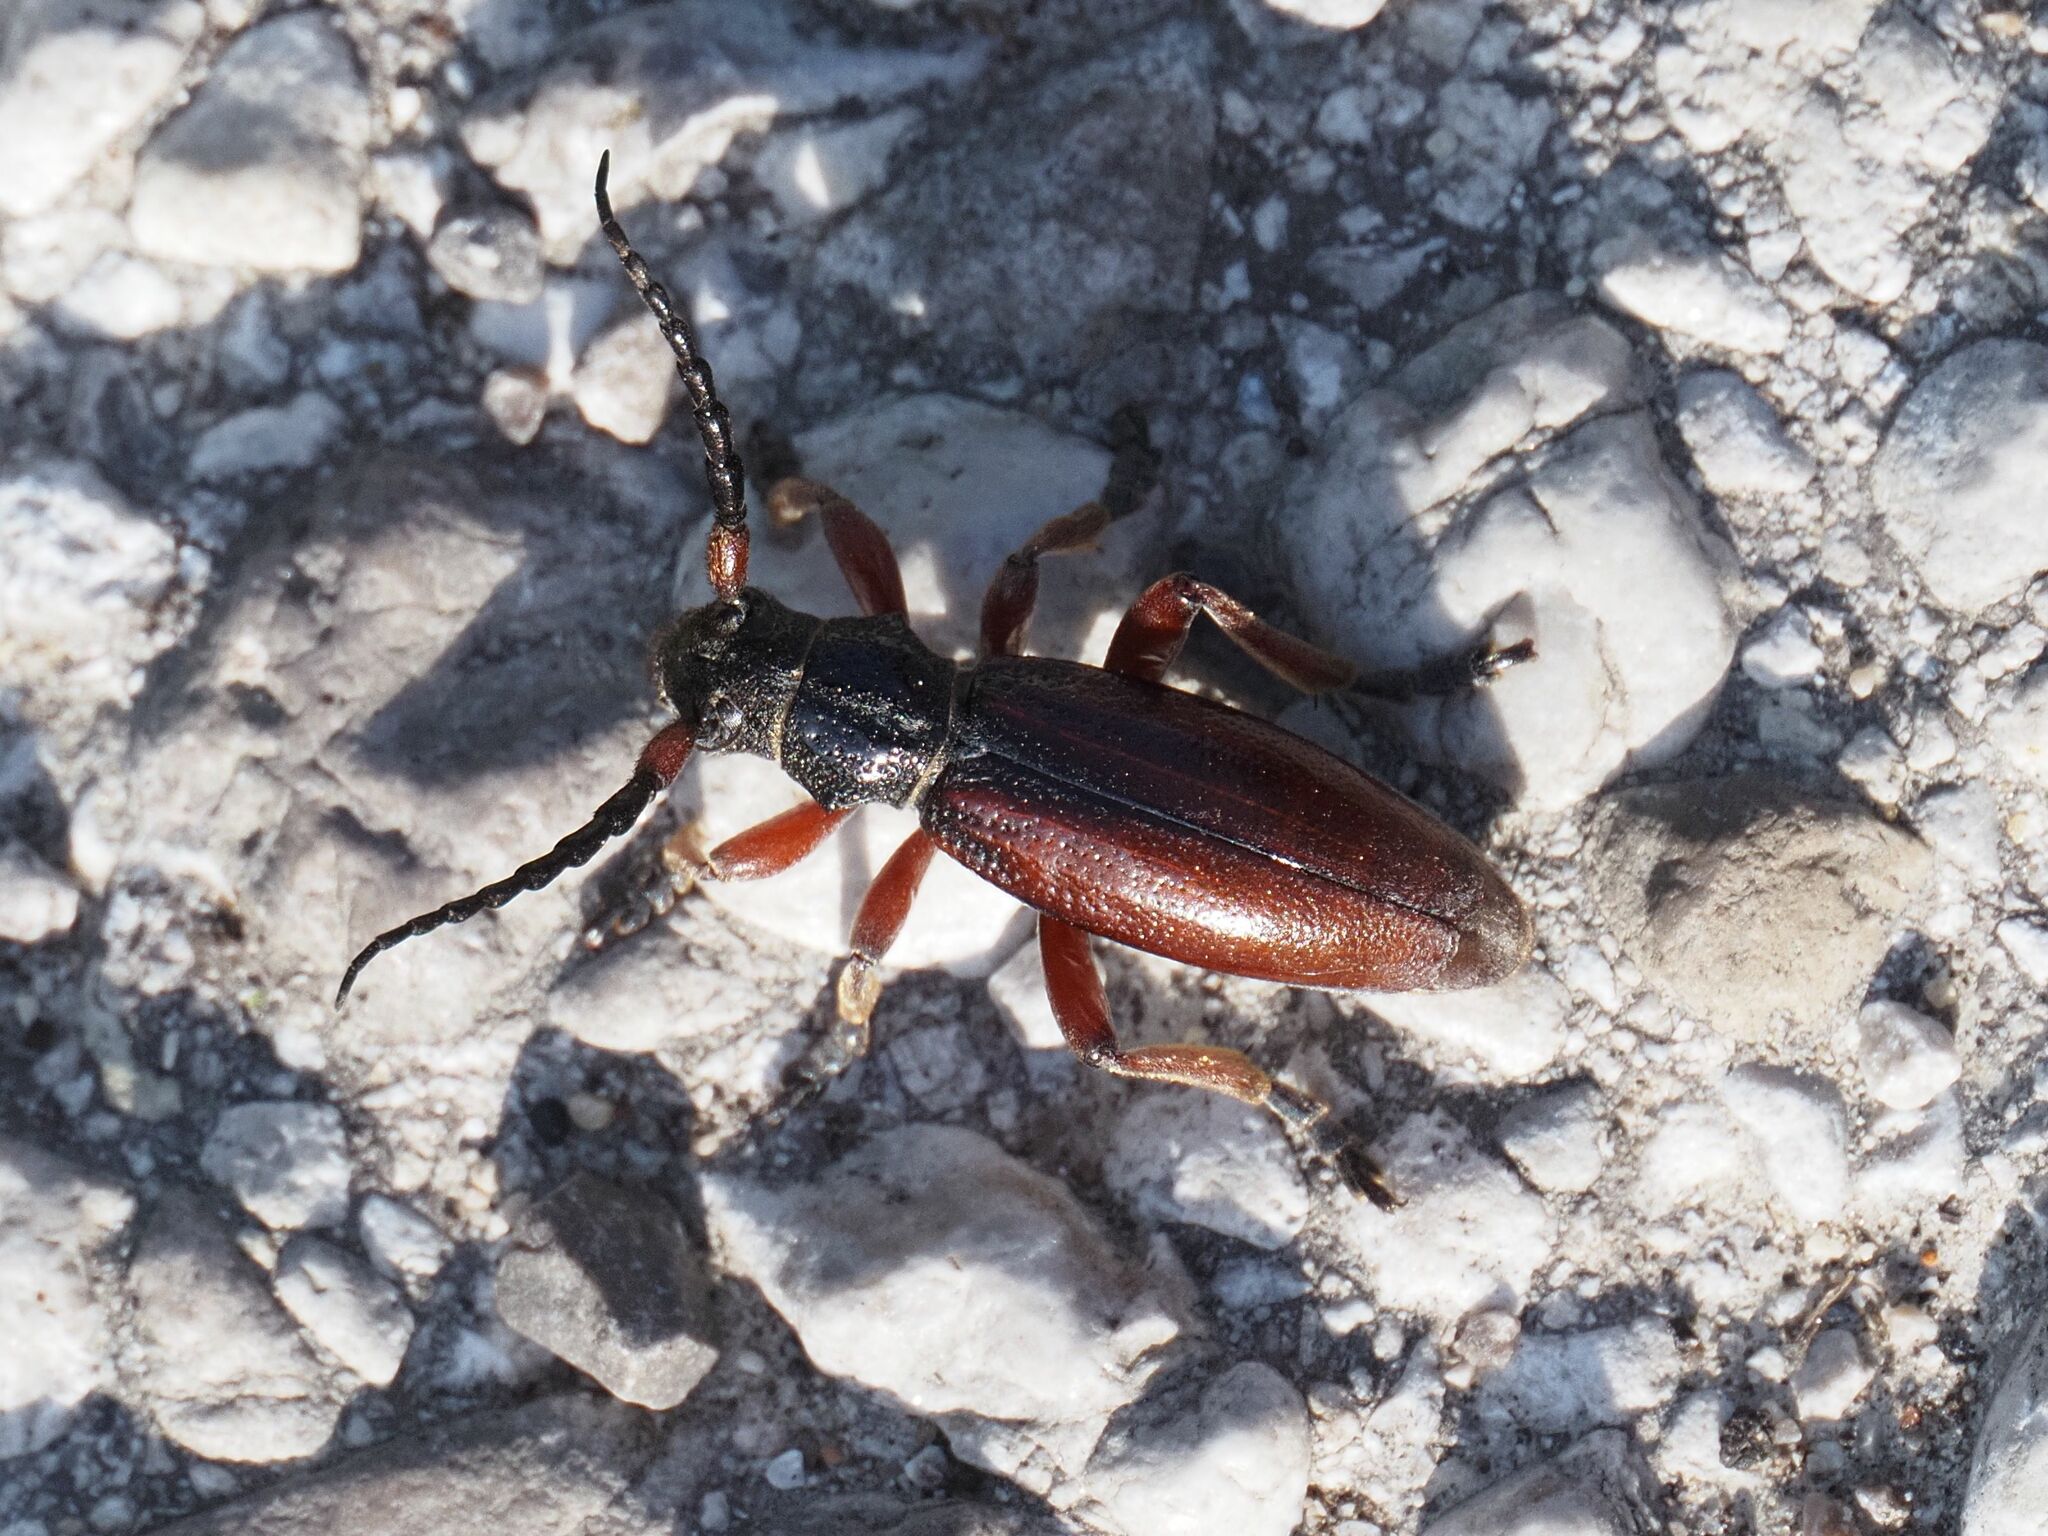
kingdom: Animalia
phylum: Arthropoda
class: Insecta
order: Coleoptera
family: Cerambycidae
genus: Dorcadion
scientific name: Dorcadion fulvum
